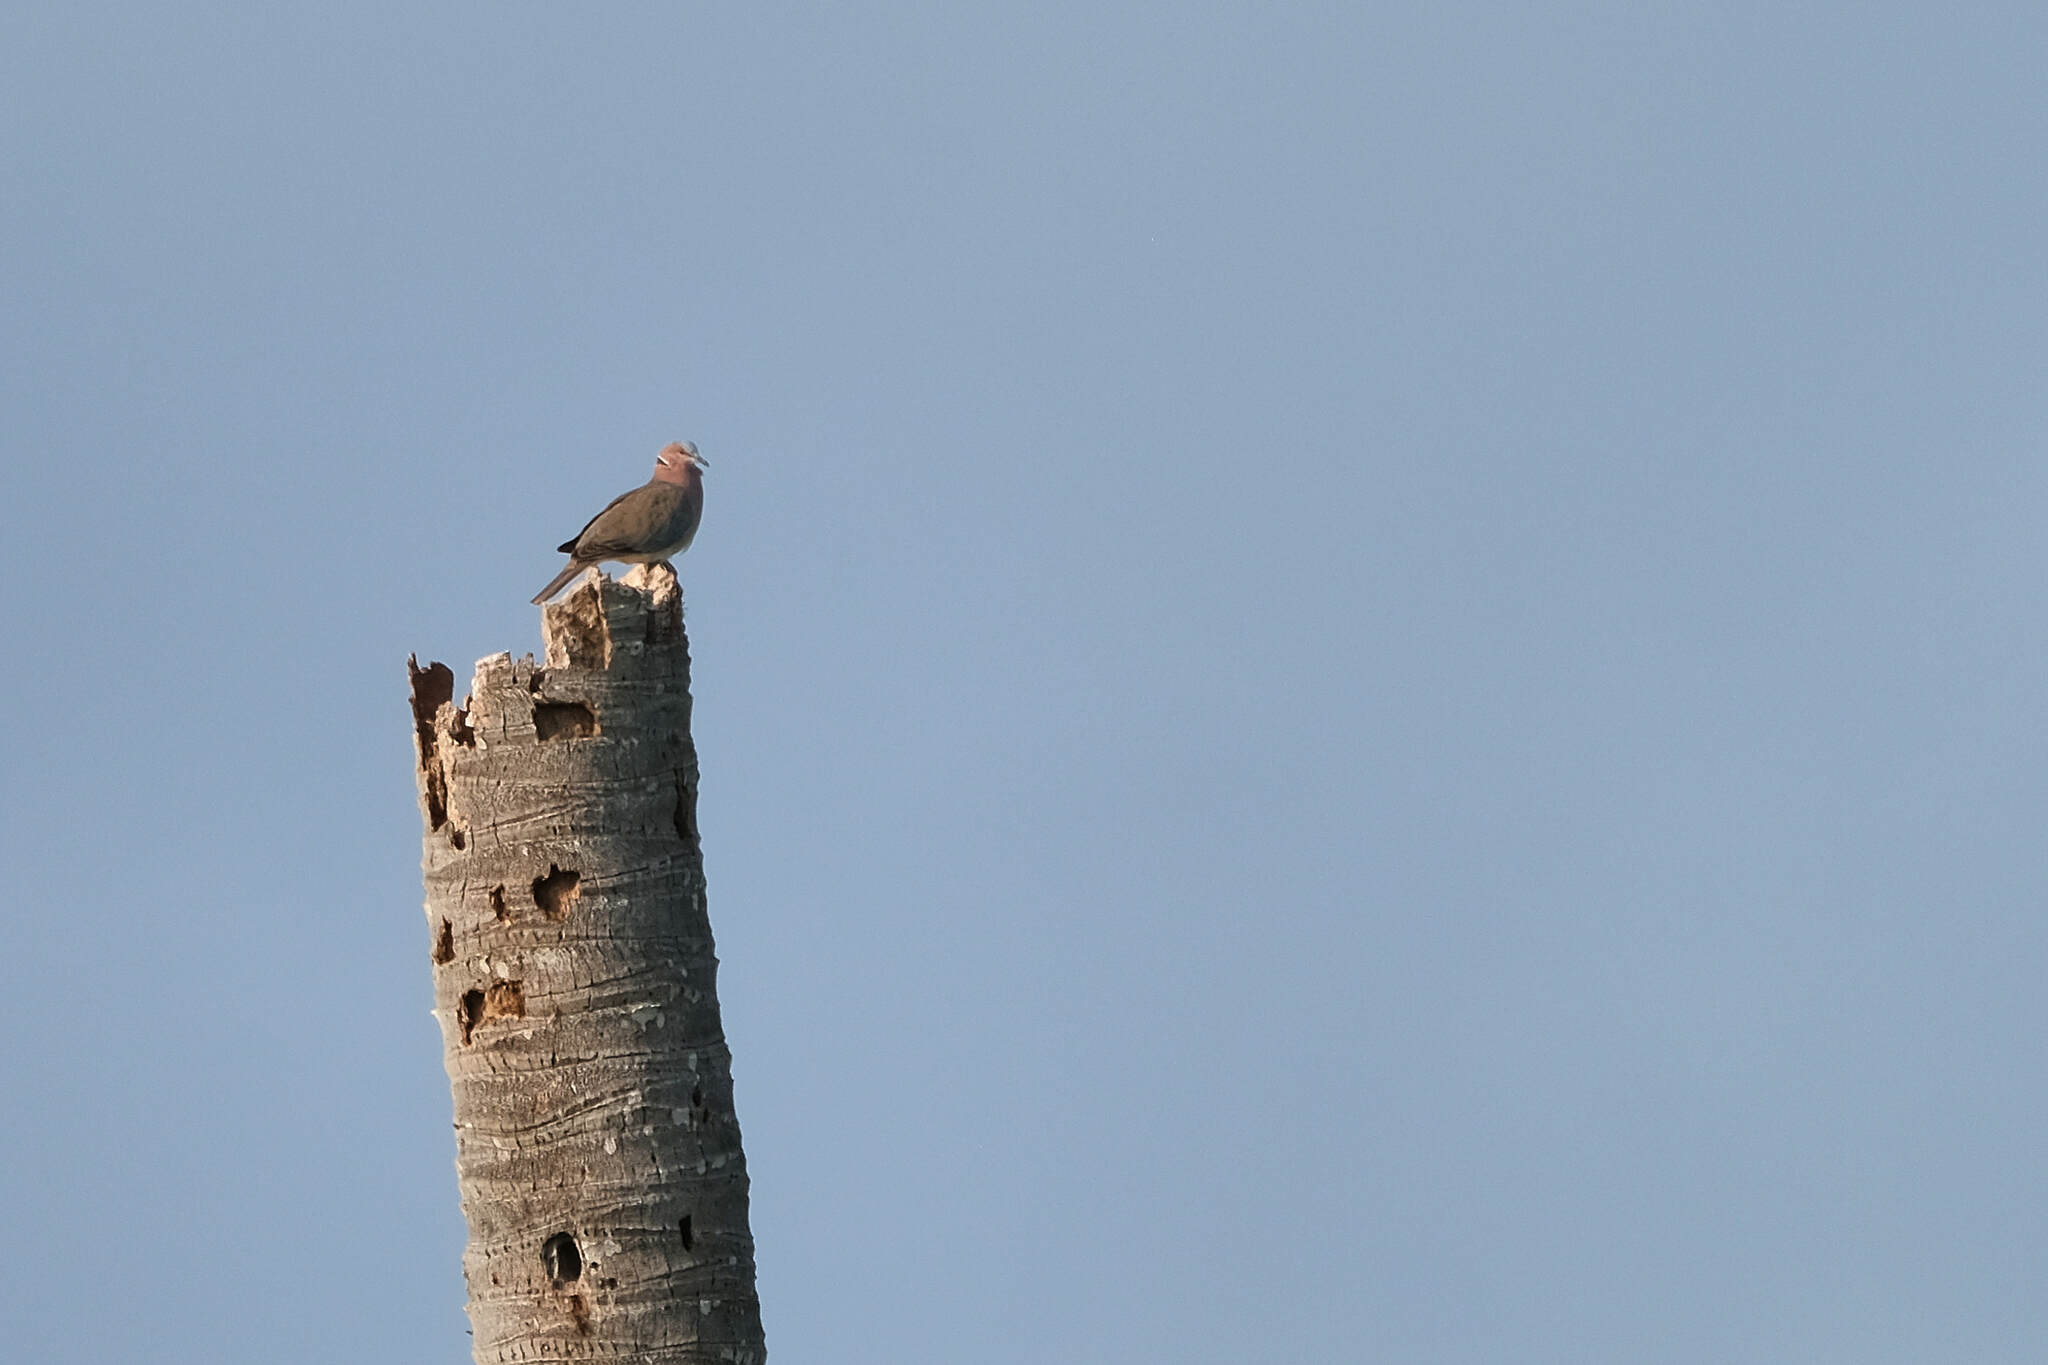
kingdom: Animalia
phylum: Chordata
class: Aves
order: Columbiformes
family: Columbidae
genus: Streptopelia
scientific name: Streptopelia bitorquata
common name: Island collared dove
